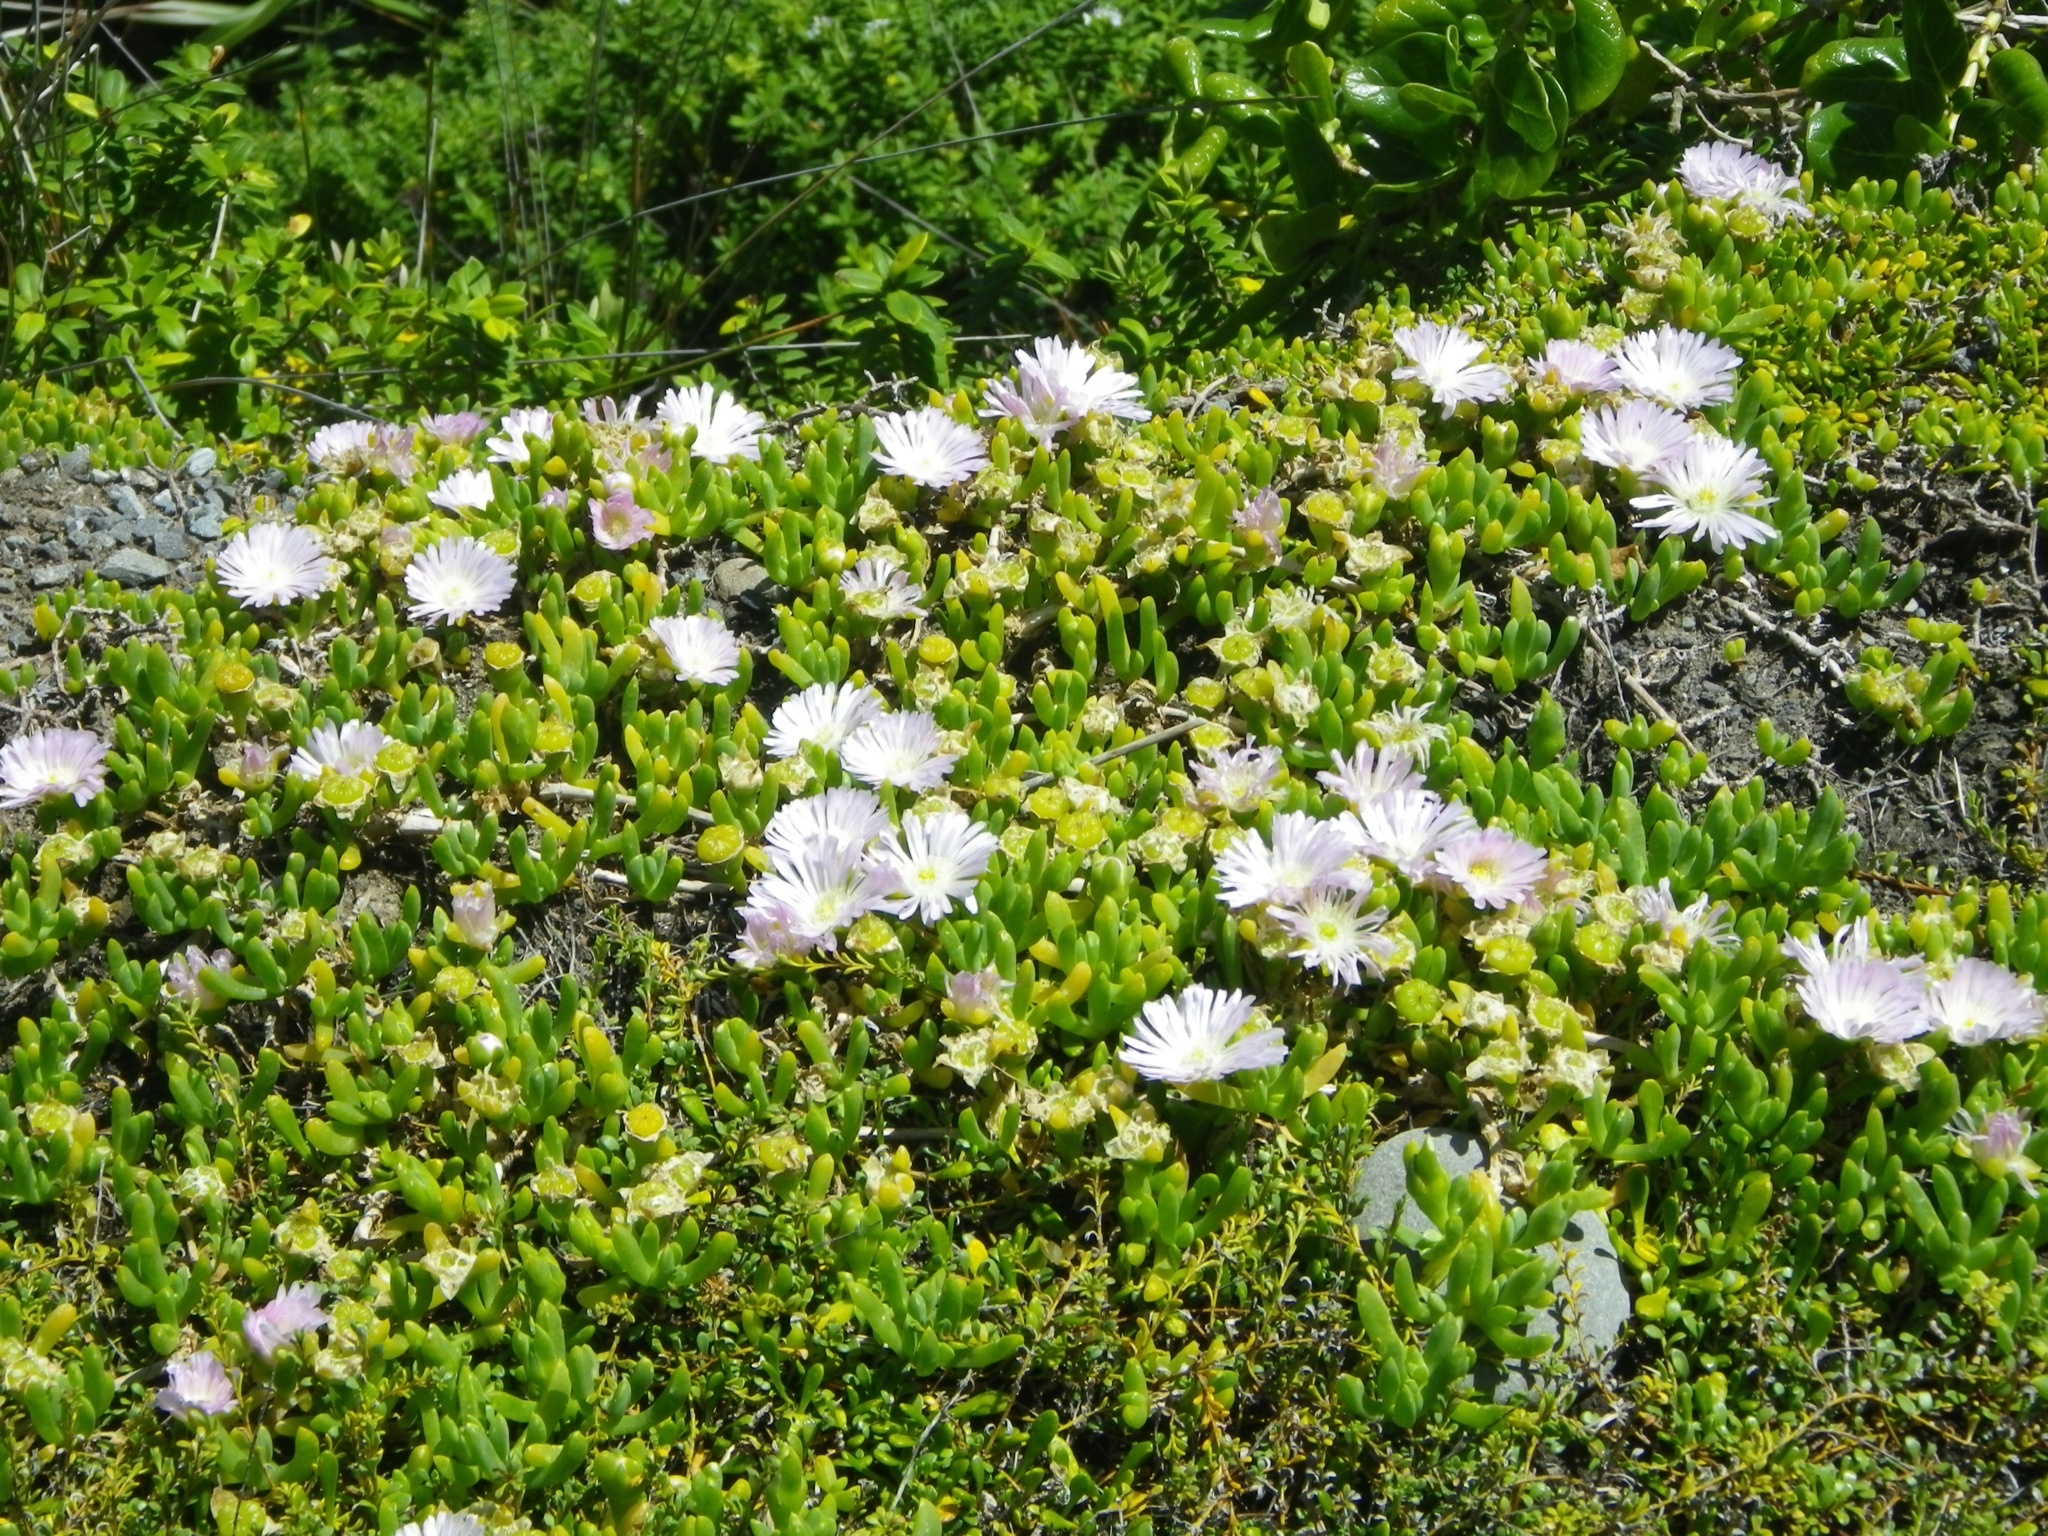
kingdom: Plantae
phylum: Tracheophyta
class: Magnoliopsida
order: Caryophyllales
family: Aizoaceae
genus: Disphyma
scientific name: Disphyma australe
